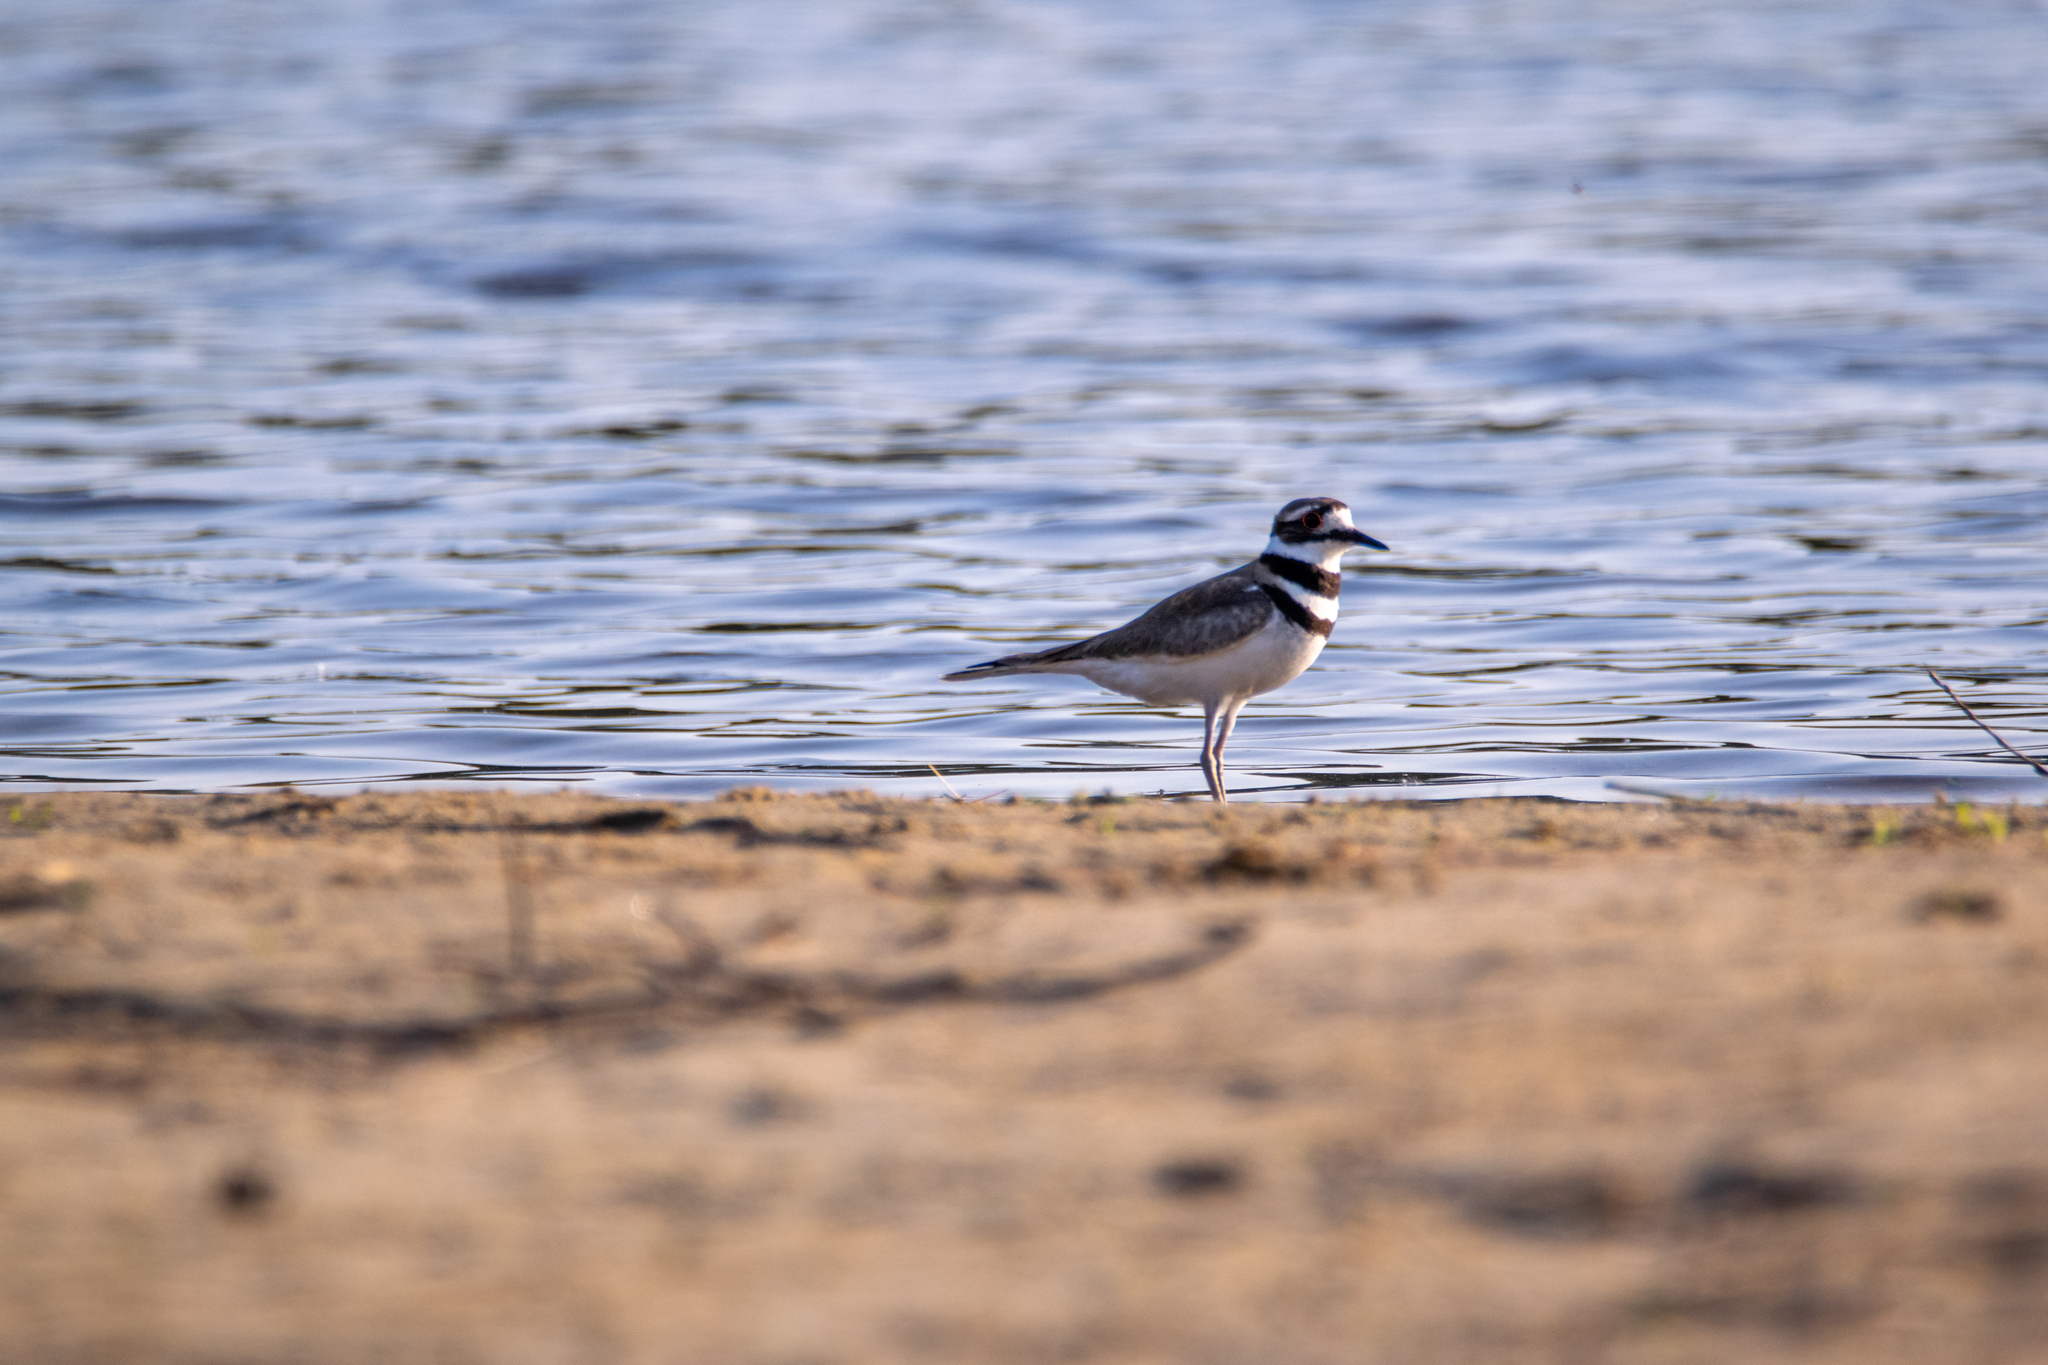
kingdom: Animalia
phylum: Chordata
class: Aves
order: Charadriiformes
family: Charadriidae
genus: Charadrius
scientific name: Charadrius vociferus
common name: Killdeer
